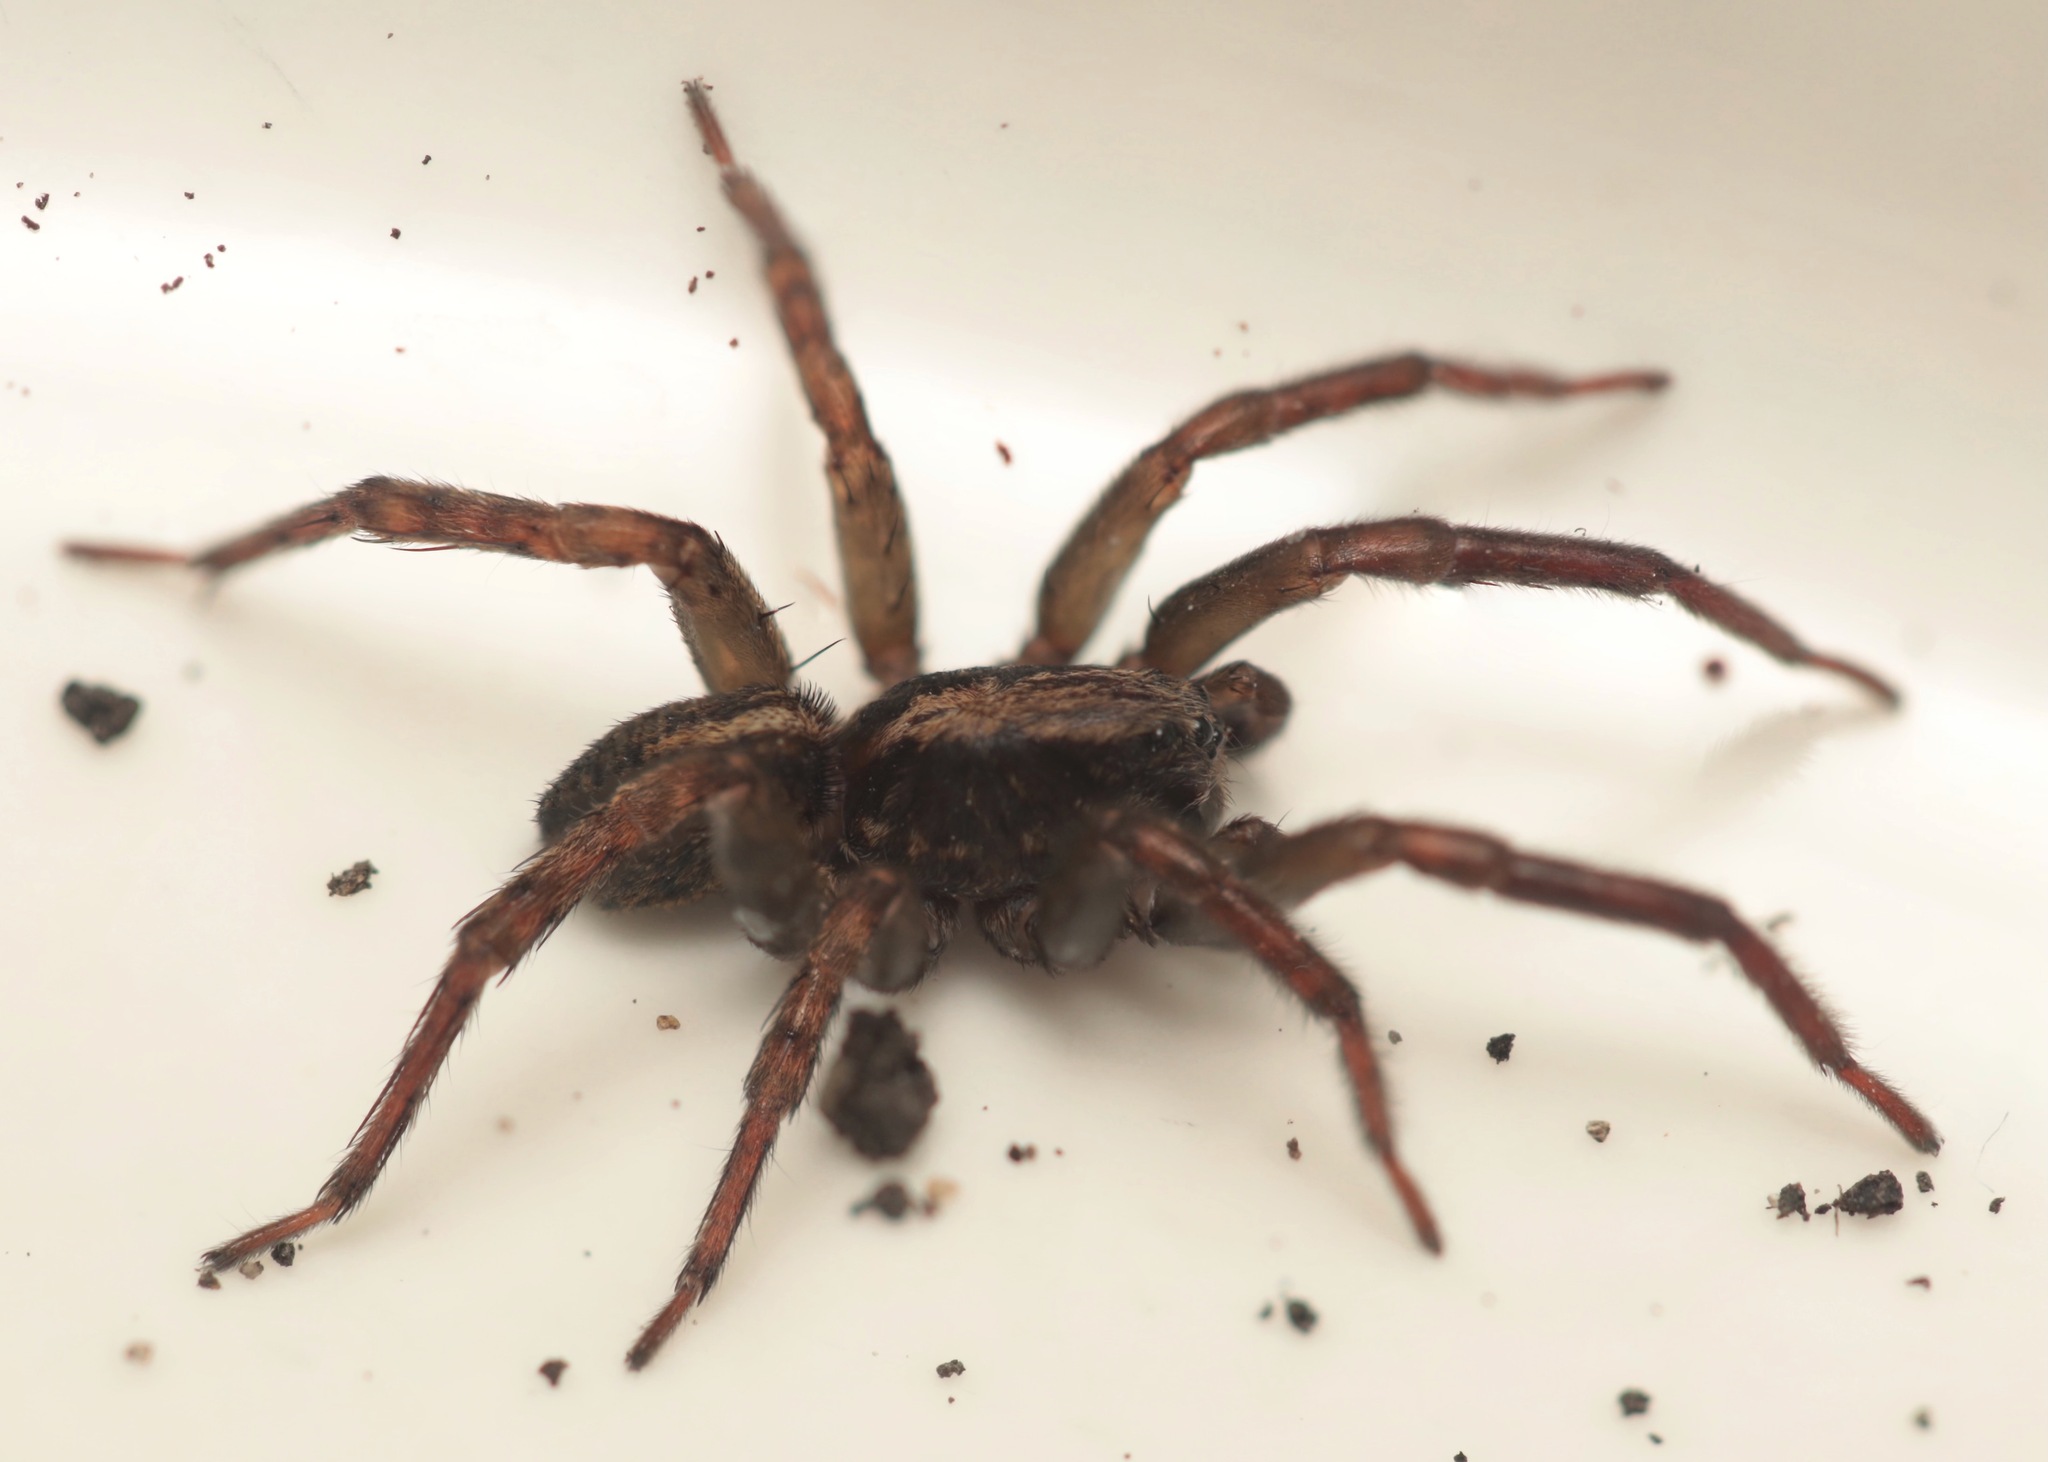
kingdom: Animalia
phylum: Arthropoda
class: Arachnida
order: Araneae
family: Lycosidae
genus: Trochosa
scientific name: Trochosa terricola
